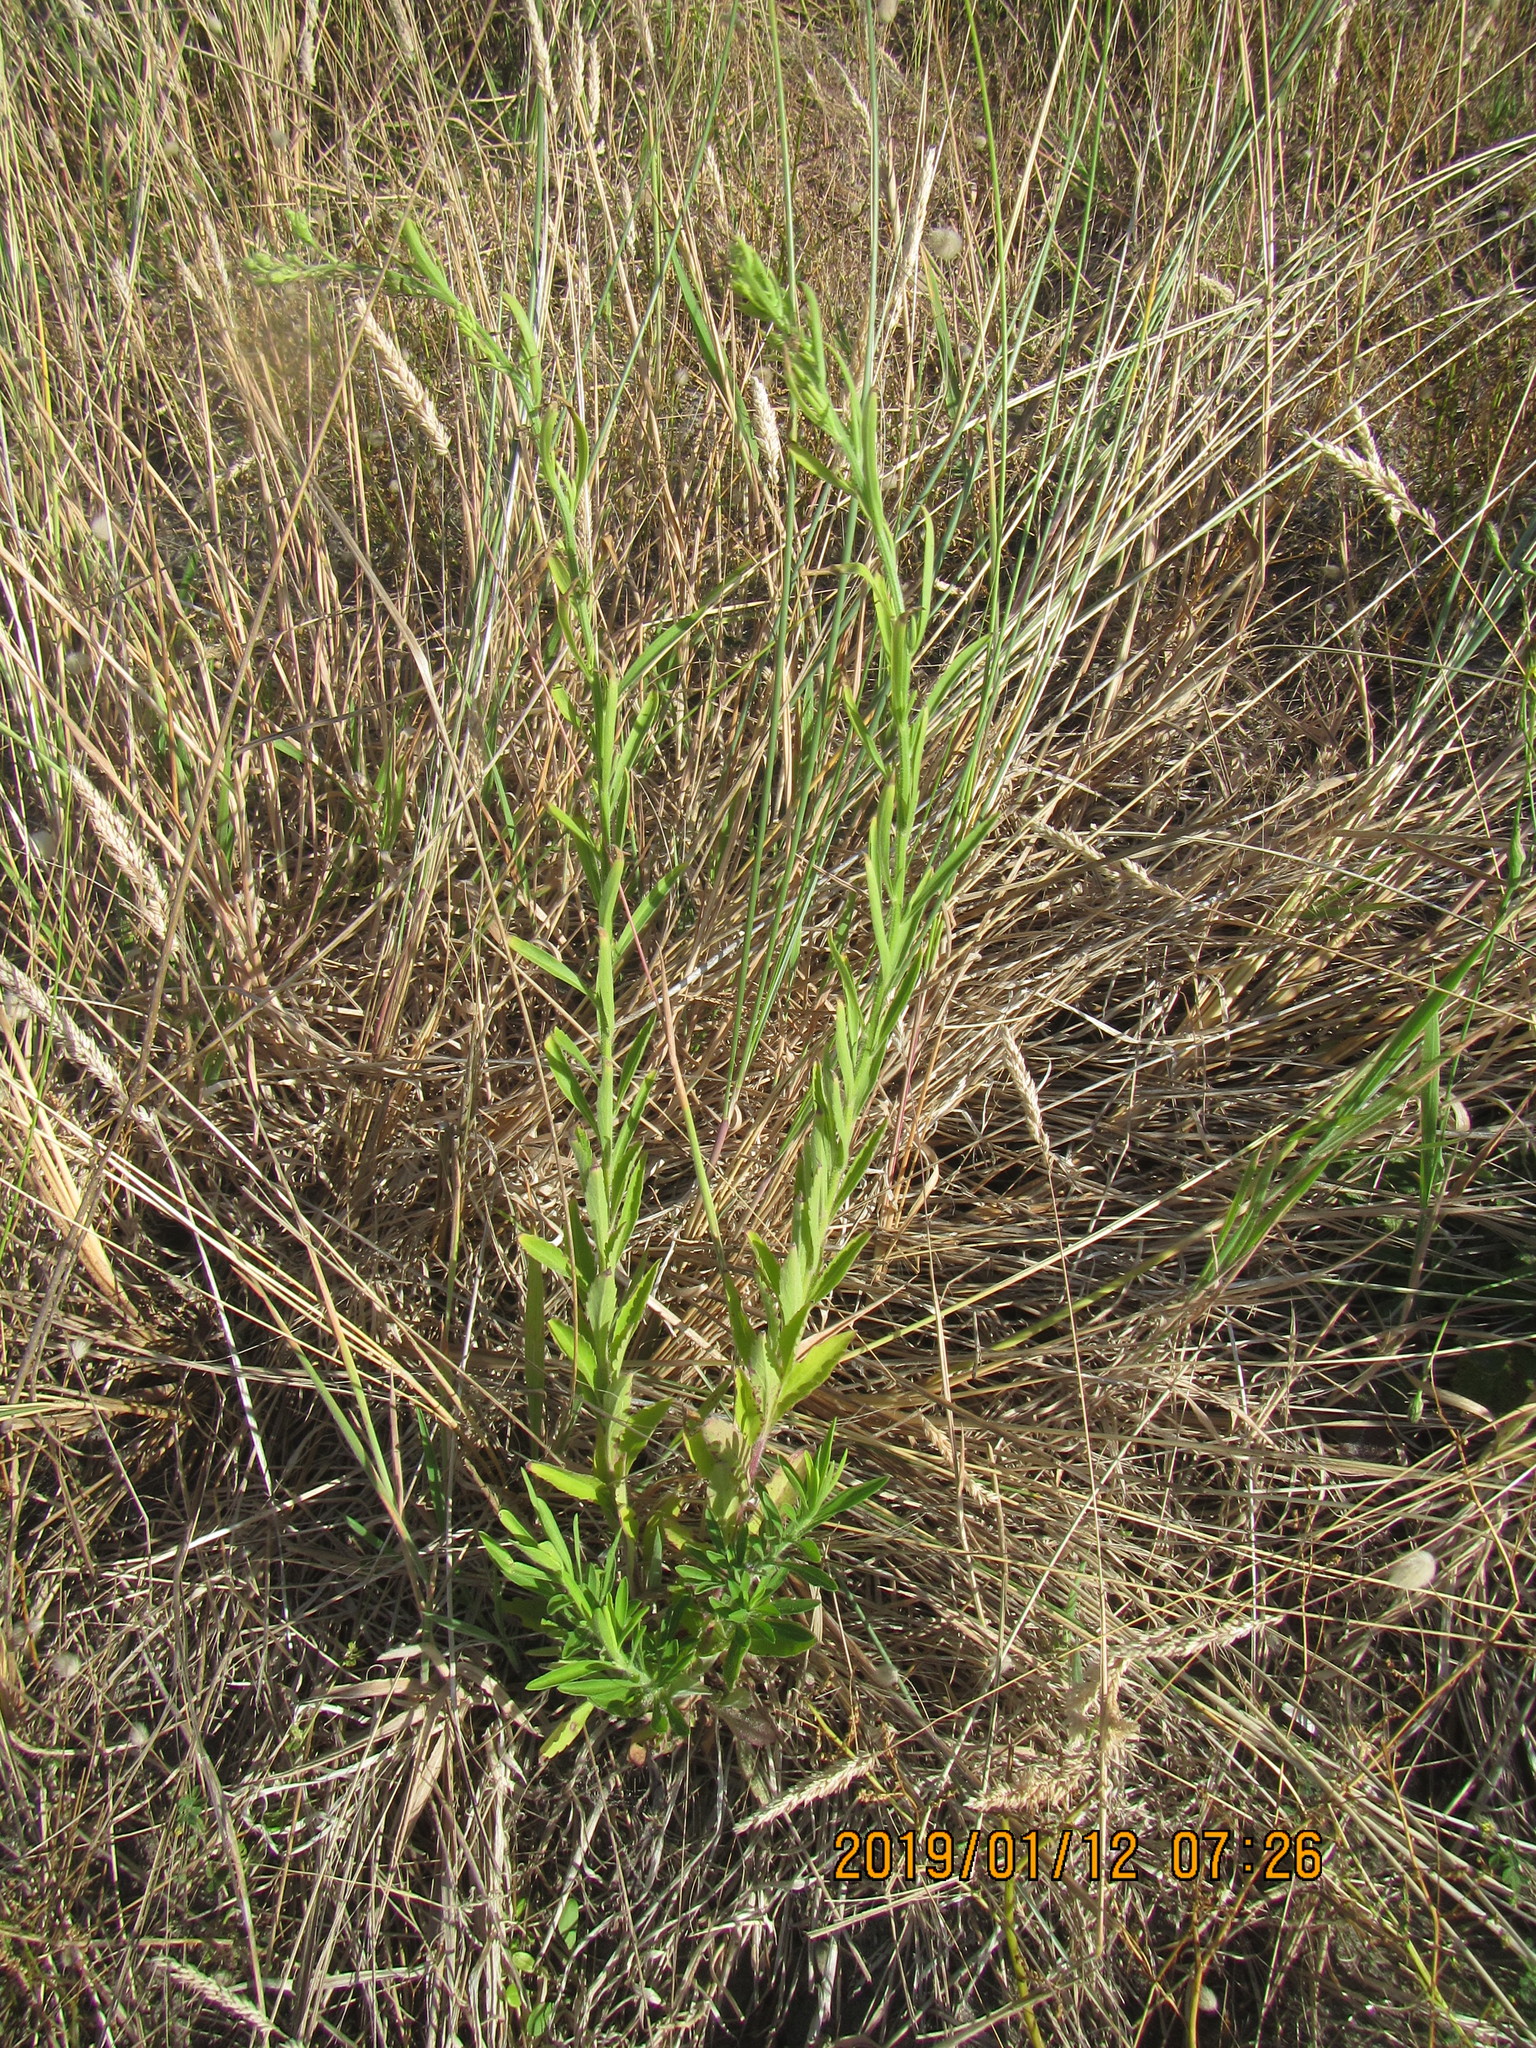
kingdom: Plantae
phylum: Tracheophyta
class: Magnoliopsida
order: Asterales
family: Asteraceae
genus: Erigeron
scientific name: Erigeron sumatrensis
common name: Daisy
